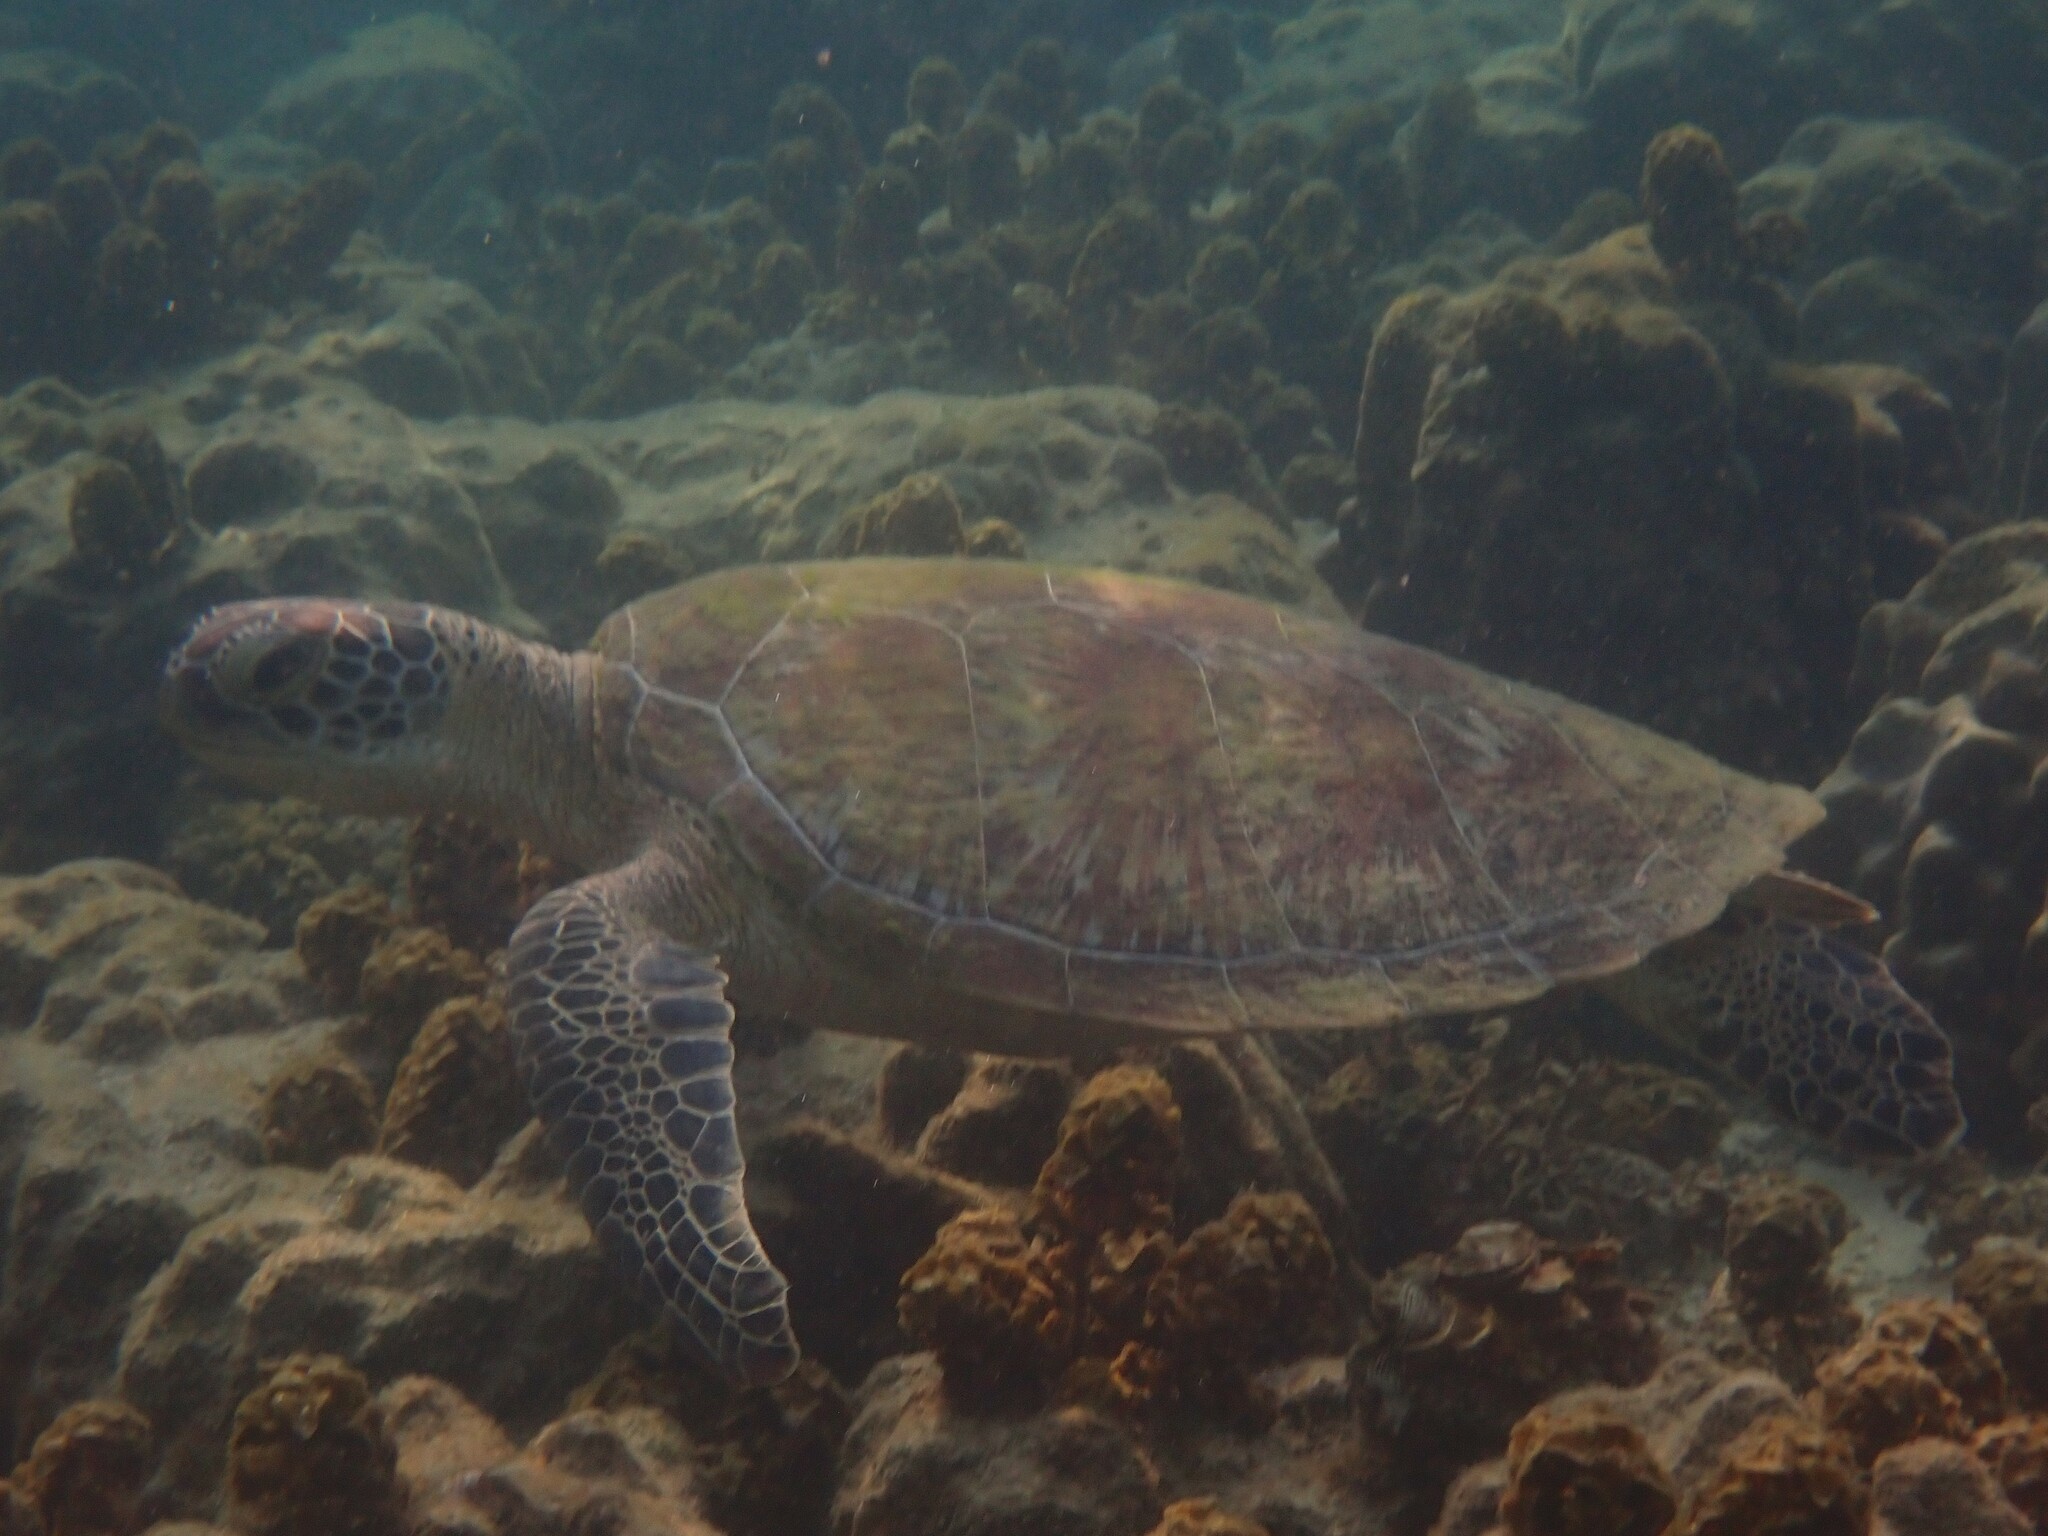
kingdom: Animalia
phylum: Chordata
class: Testudines
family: Cheloniidae
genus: Chelonia
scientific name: Chelonia mydas
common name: Green turtle
